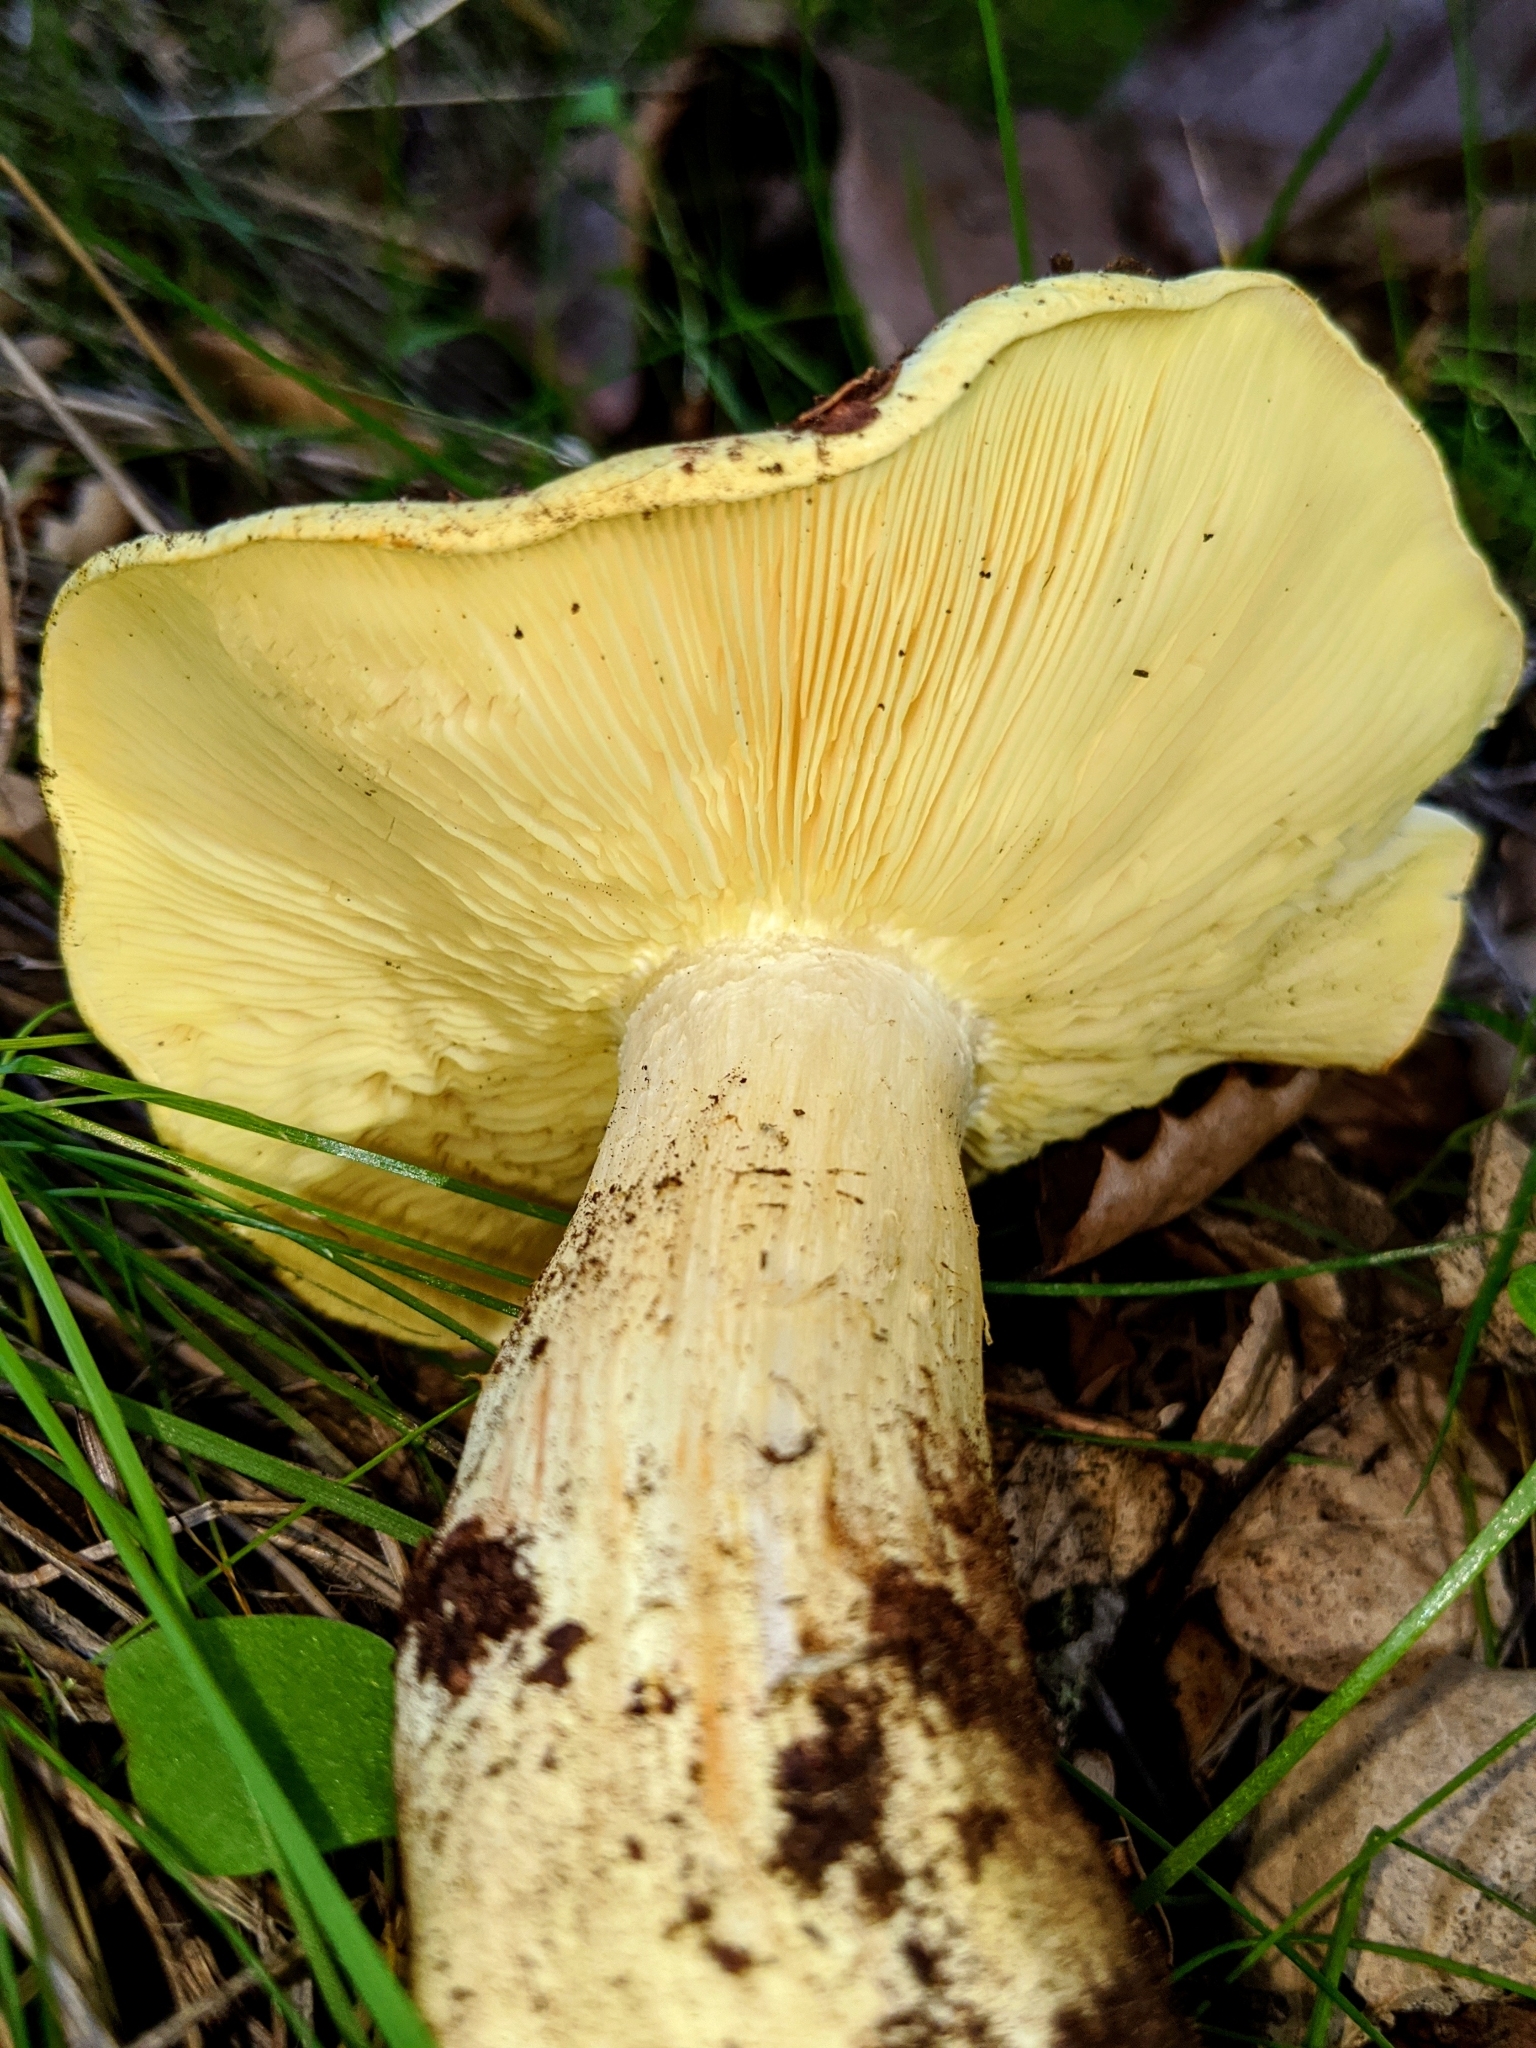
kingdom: Fungi
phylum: Basidiomycota
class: Agaricomycetes
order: Agaricales
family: Tricholomataceae
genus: Melanoleuca
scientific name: Melanoleuca yatesii
